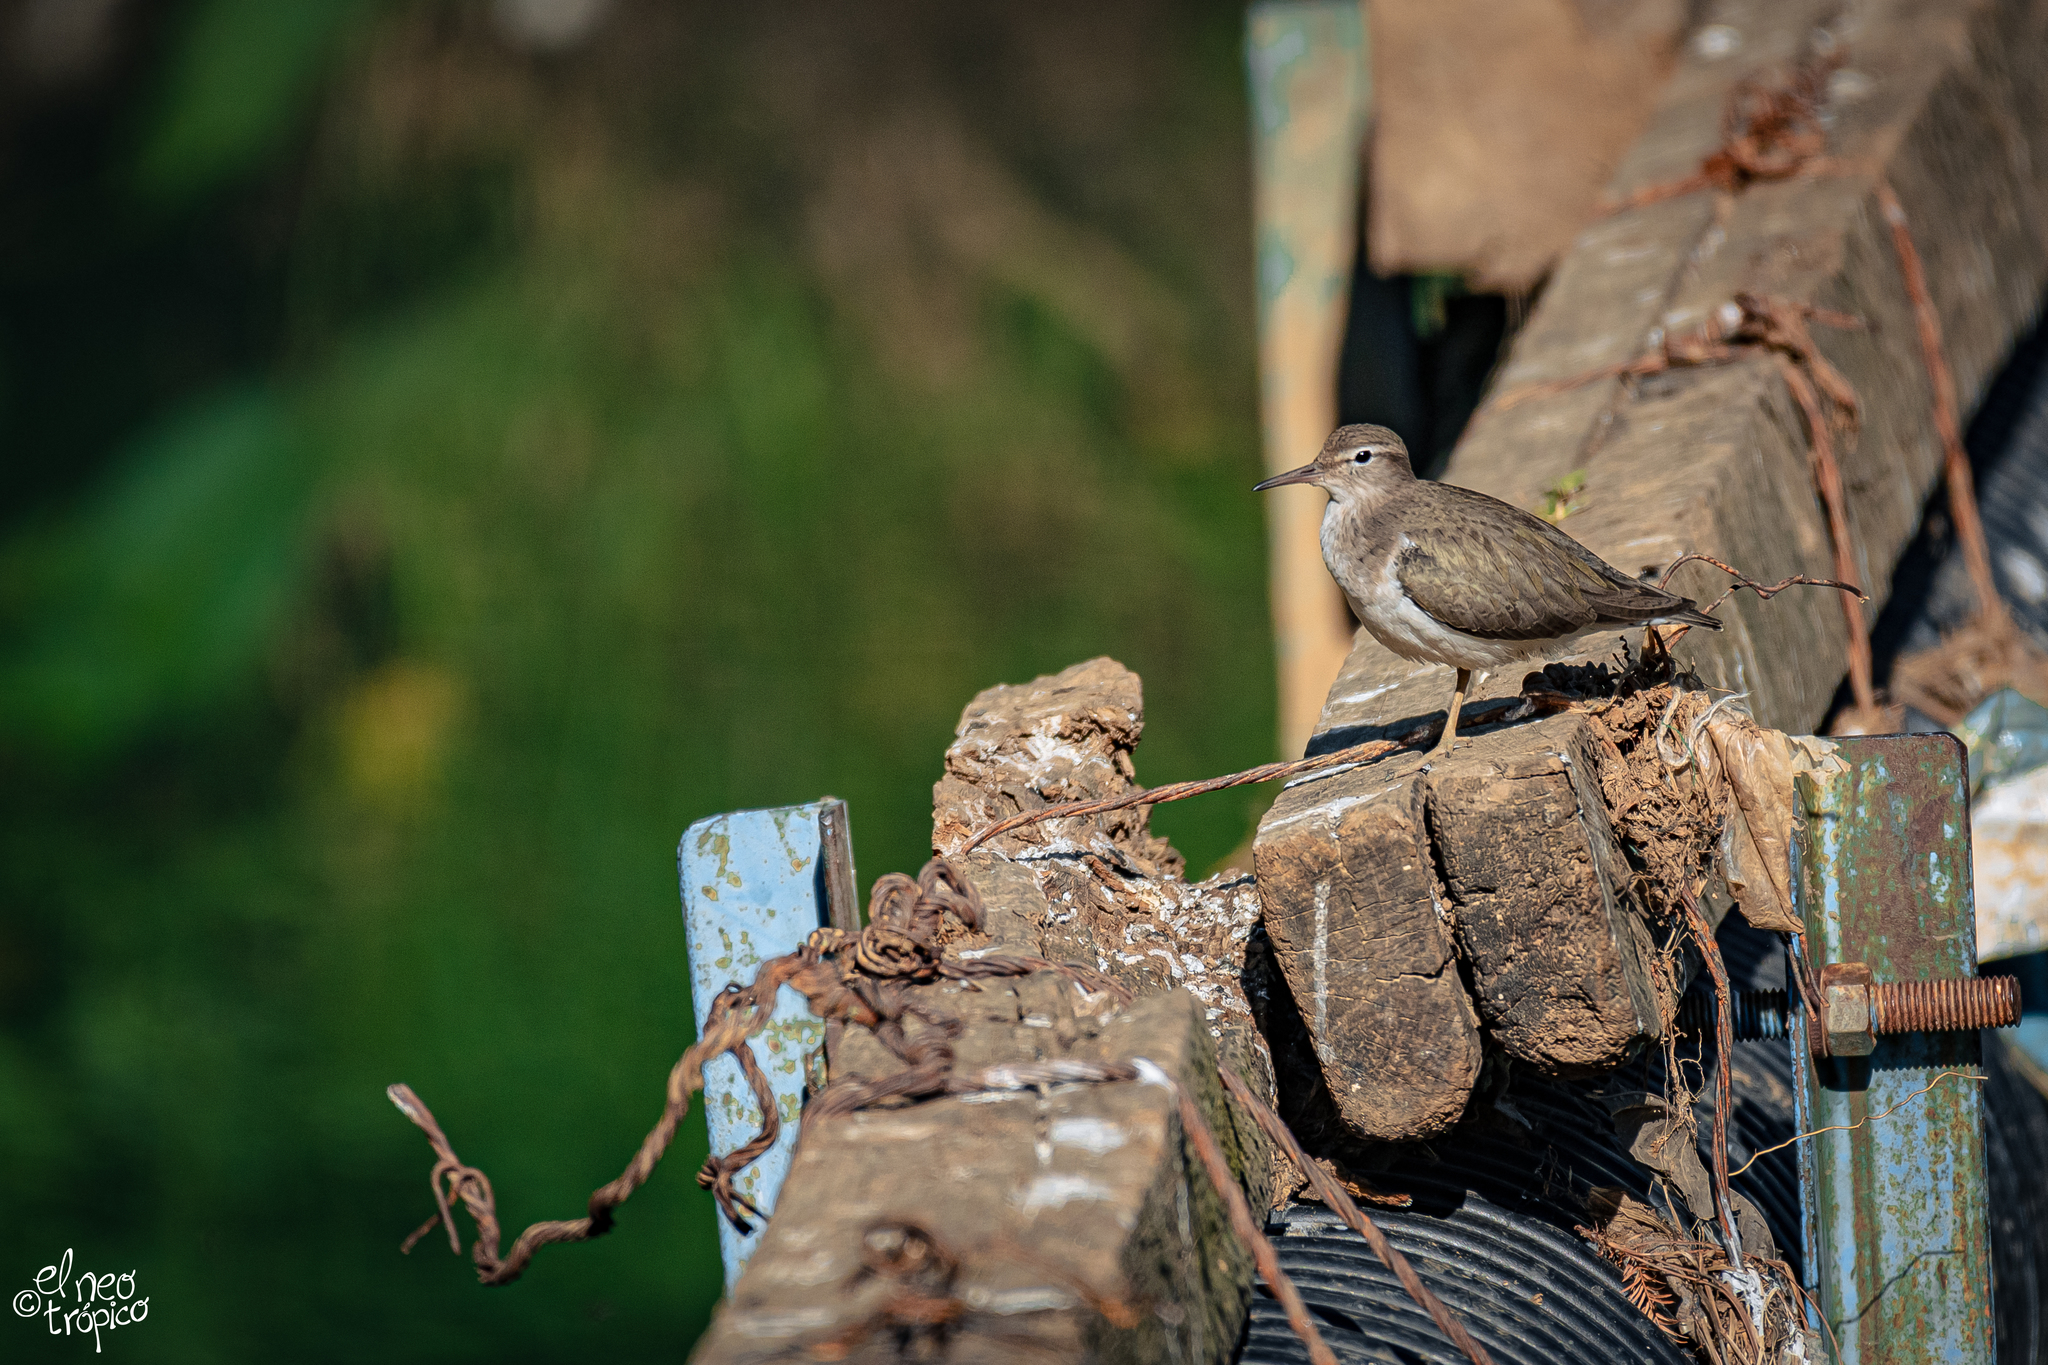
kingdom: Animalia
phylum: Chordata
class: Aves
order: Charadriiformes
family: Scolopacidae
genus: Actitis
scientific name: Actitis macularius
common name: Spotted sandpiper
